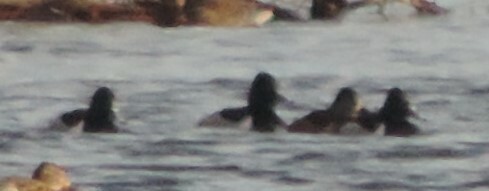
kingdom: Animalia
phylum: Chordata
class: Aves
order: Anseriformes
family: Anatidae
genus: Aythya
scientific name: Aythya collaris
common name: Ring-necked duck
